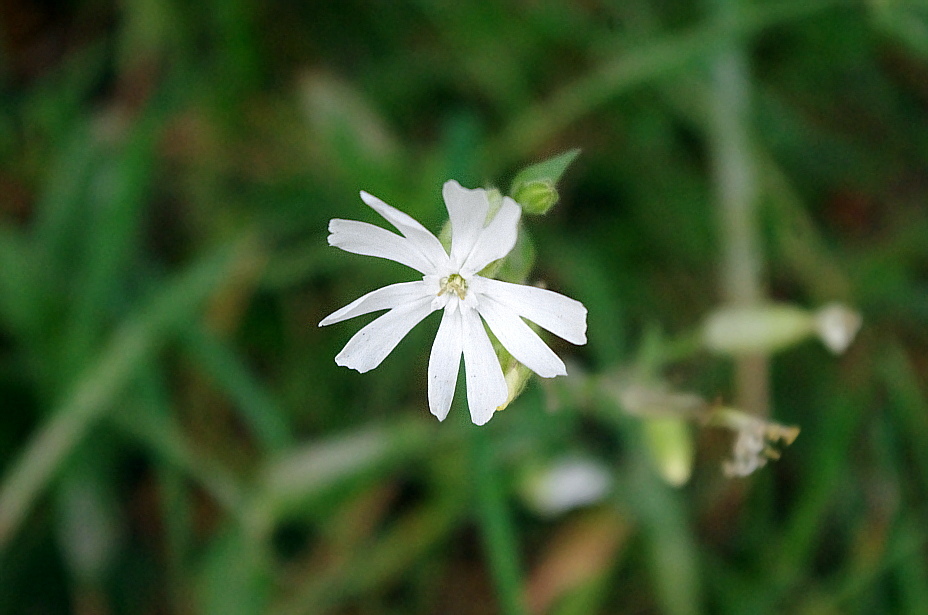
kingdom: Plantae
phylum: Tracheophyta
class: Magnoliopsida
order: Caryophyllales
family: Caryophyllaceae
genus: Silene
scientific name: Silene latifolia
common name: White campion
